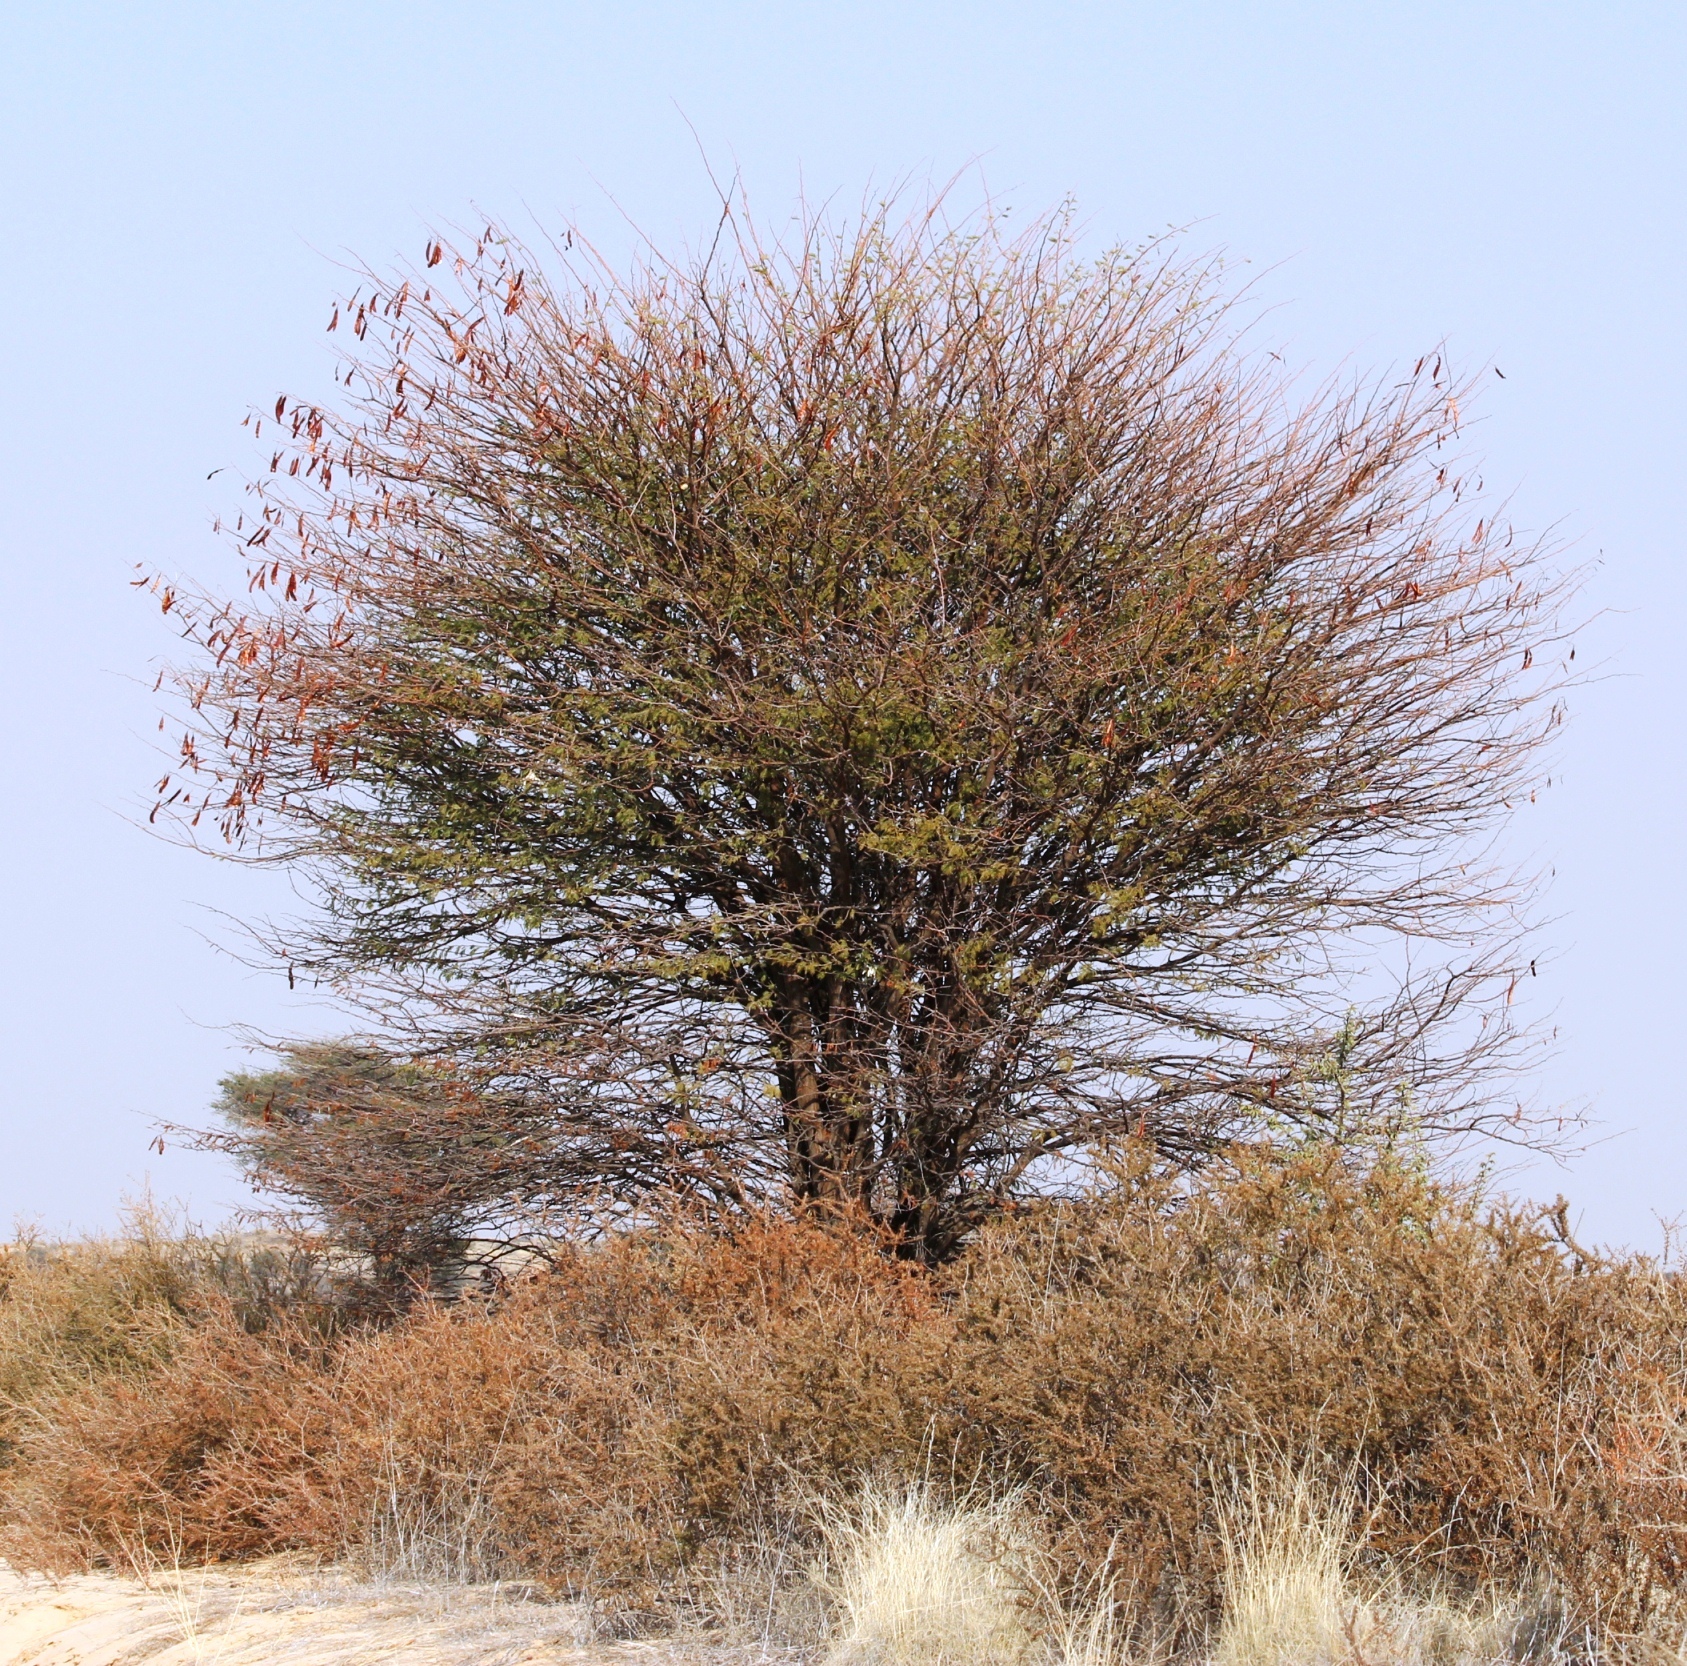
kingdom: Plantae
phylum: Tracheophyta
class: Magnoliopsida
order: Fabales
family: Fabaceae
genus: Vachellia
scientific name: Vachellia luederitzii
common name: Bastard umbrella thorn
